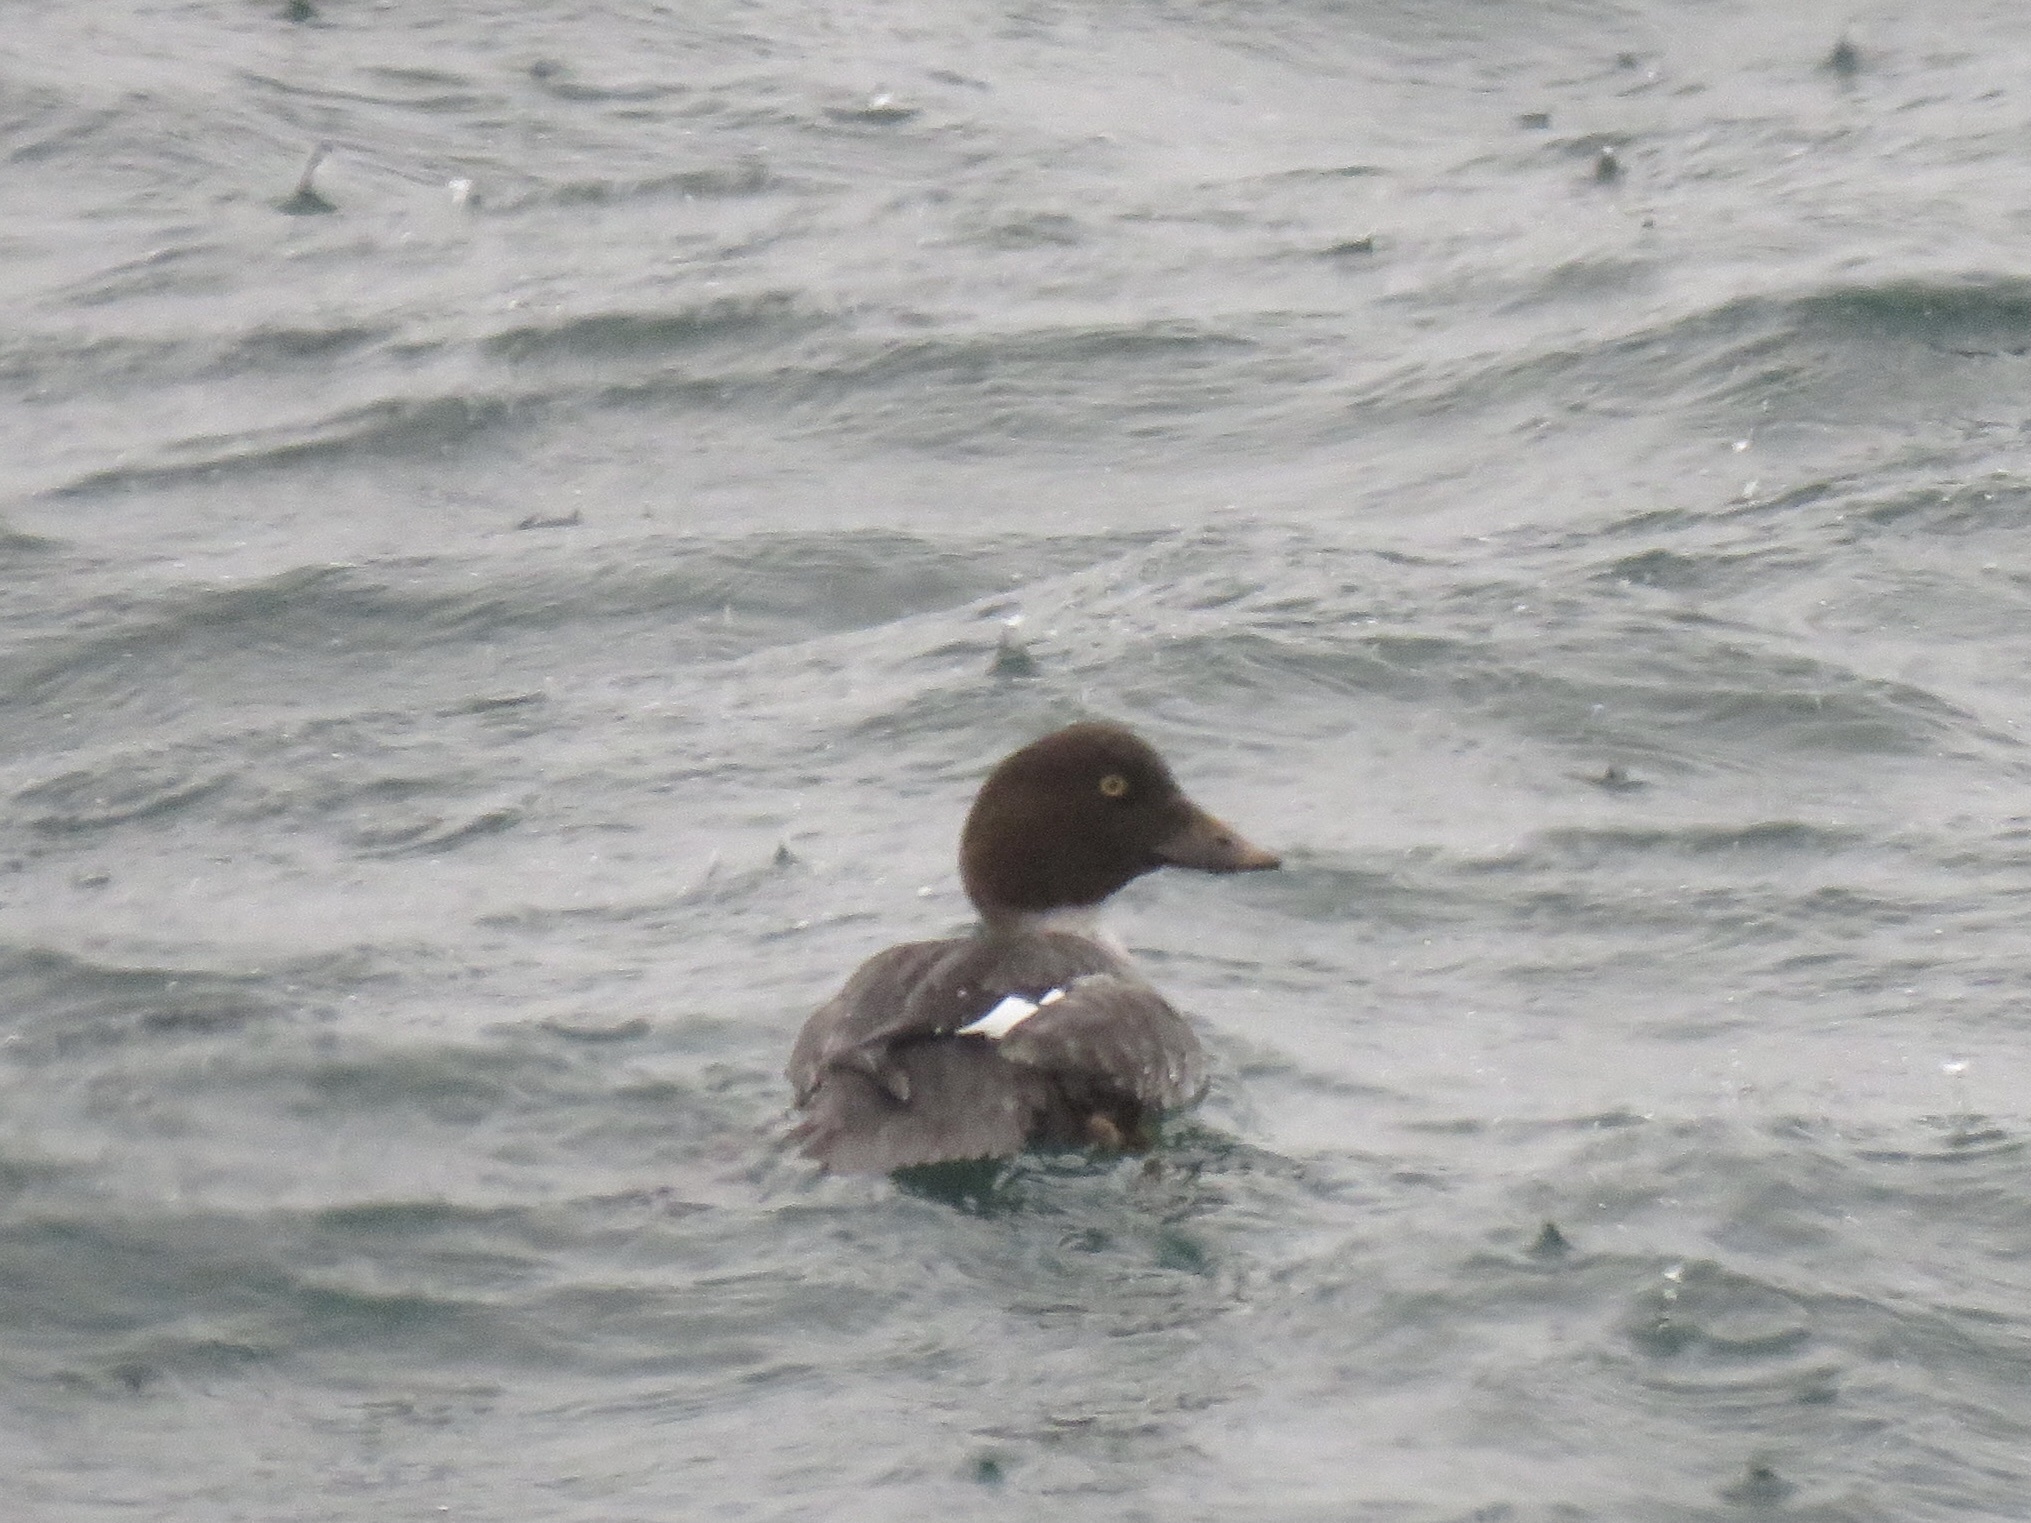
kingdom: Animalia
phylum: Chordata
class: Aves
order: Anseriformes
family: Anatidae
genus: Bucephala
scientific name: Bucephala clangula
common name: Common goldeneye
